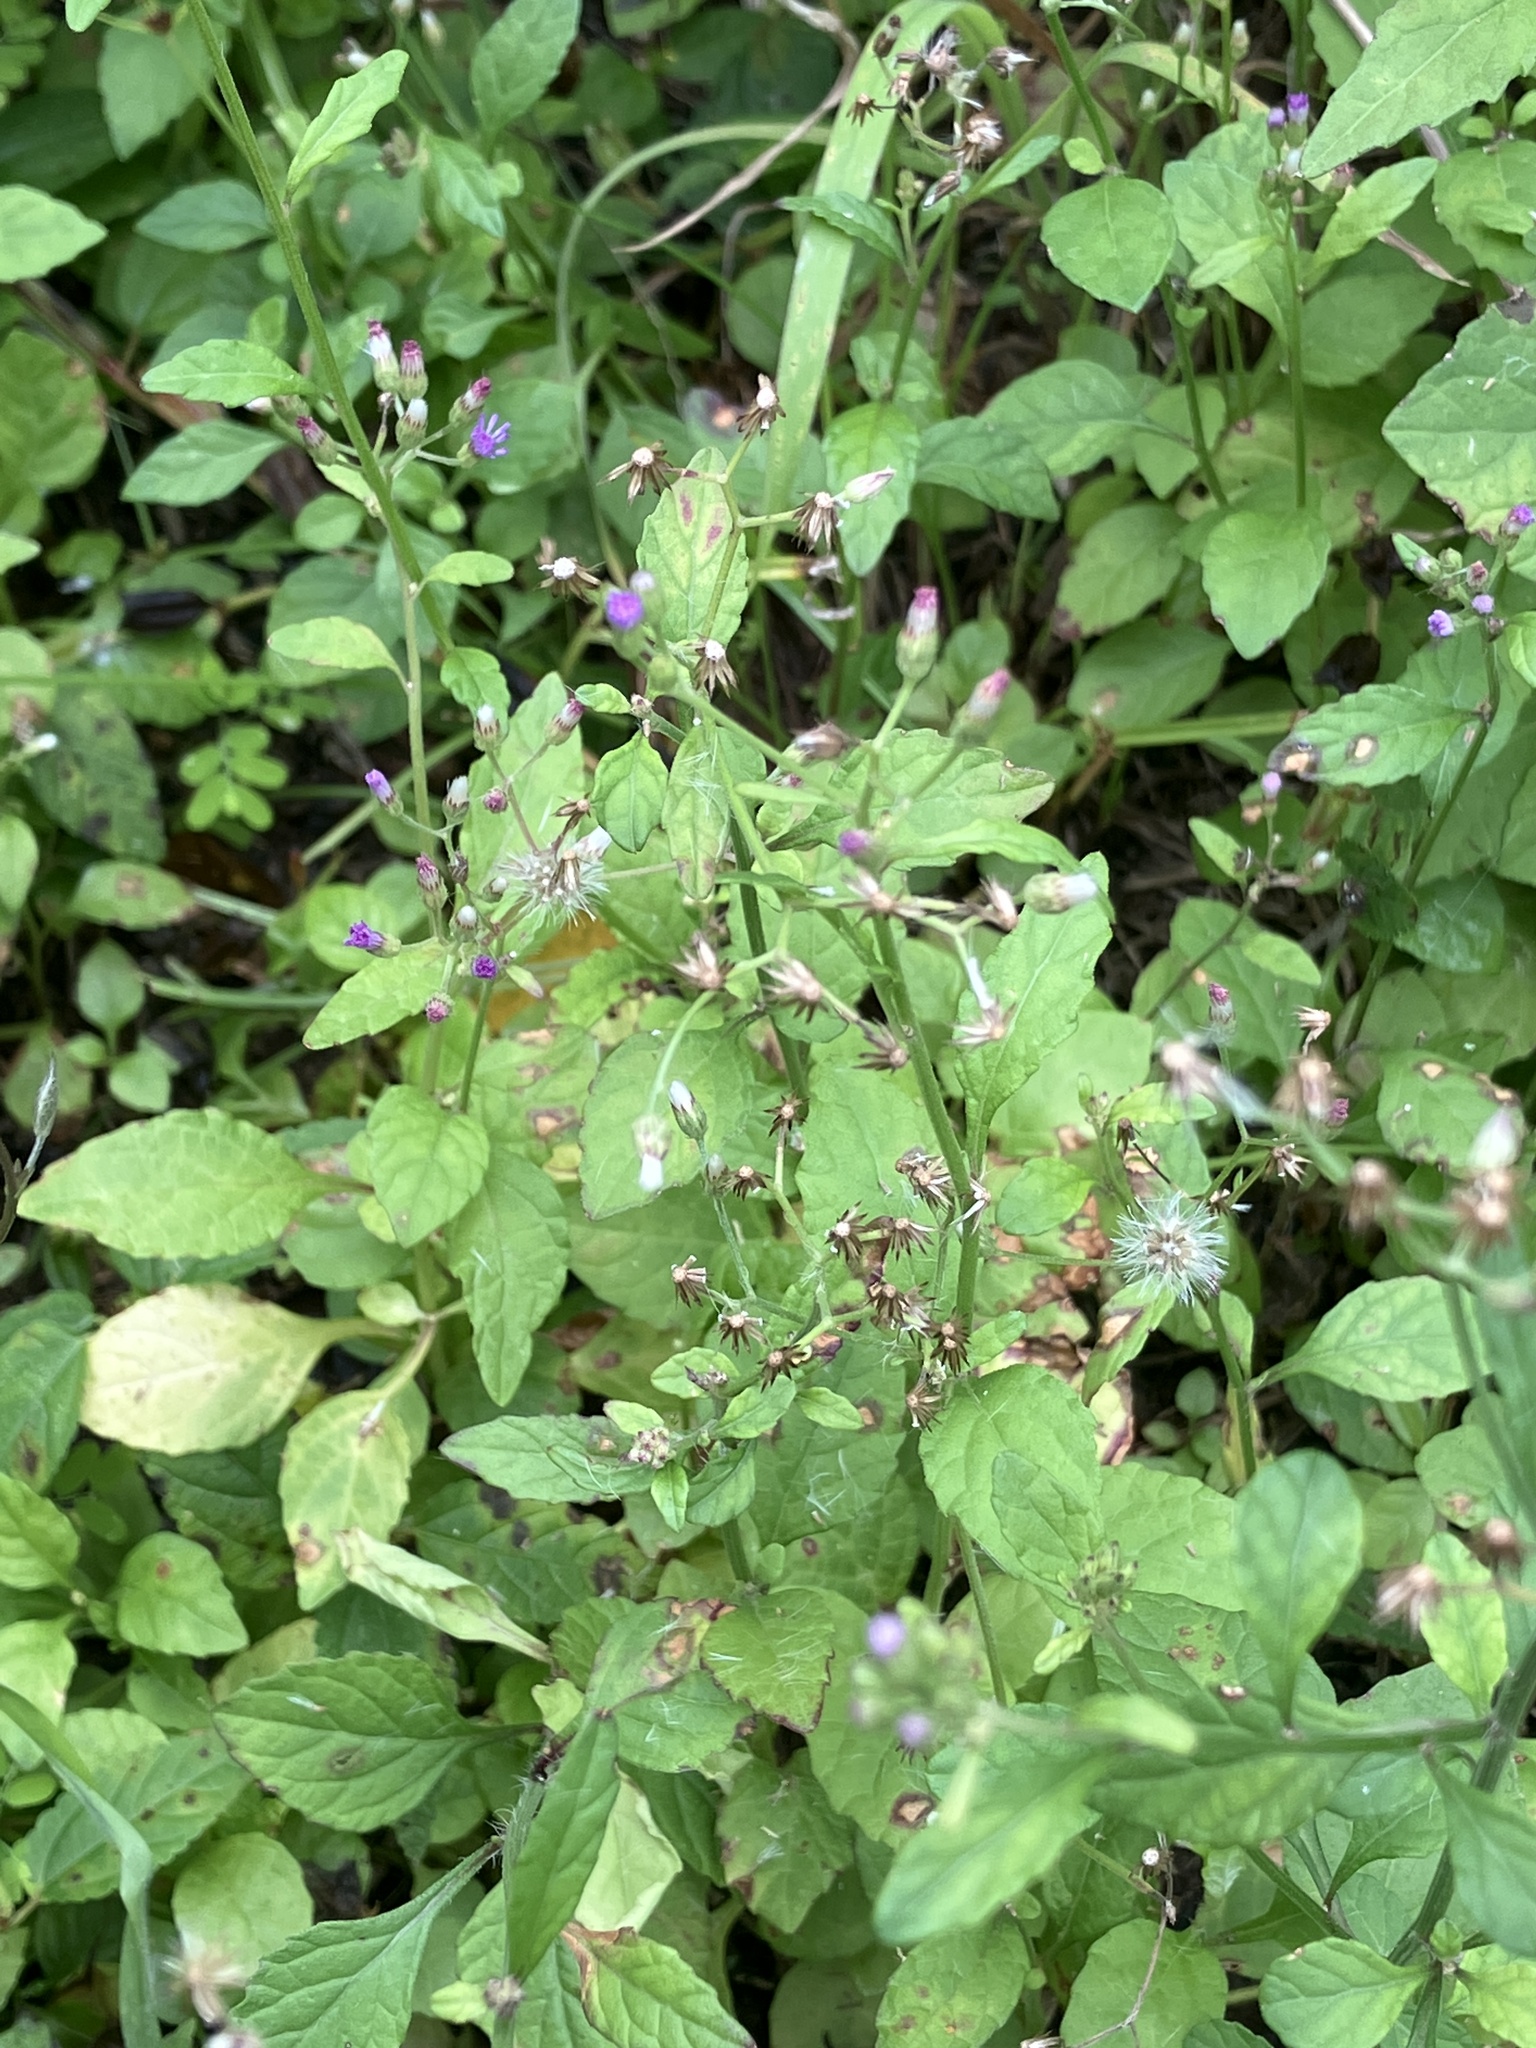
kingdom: Plantae
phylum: Tracheophyta
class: Magnoliopsida
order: Asterales
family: Asteraceae
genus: Cyanthillium
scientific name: Cyanthillium cinereum
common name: Little ironweed
